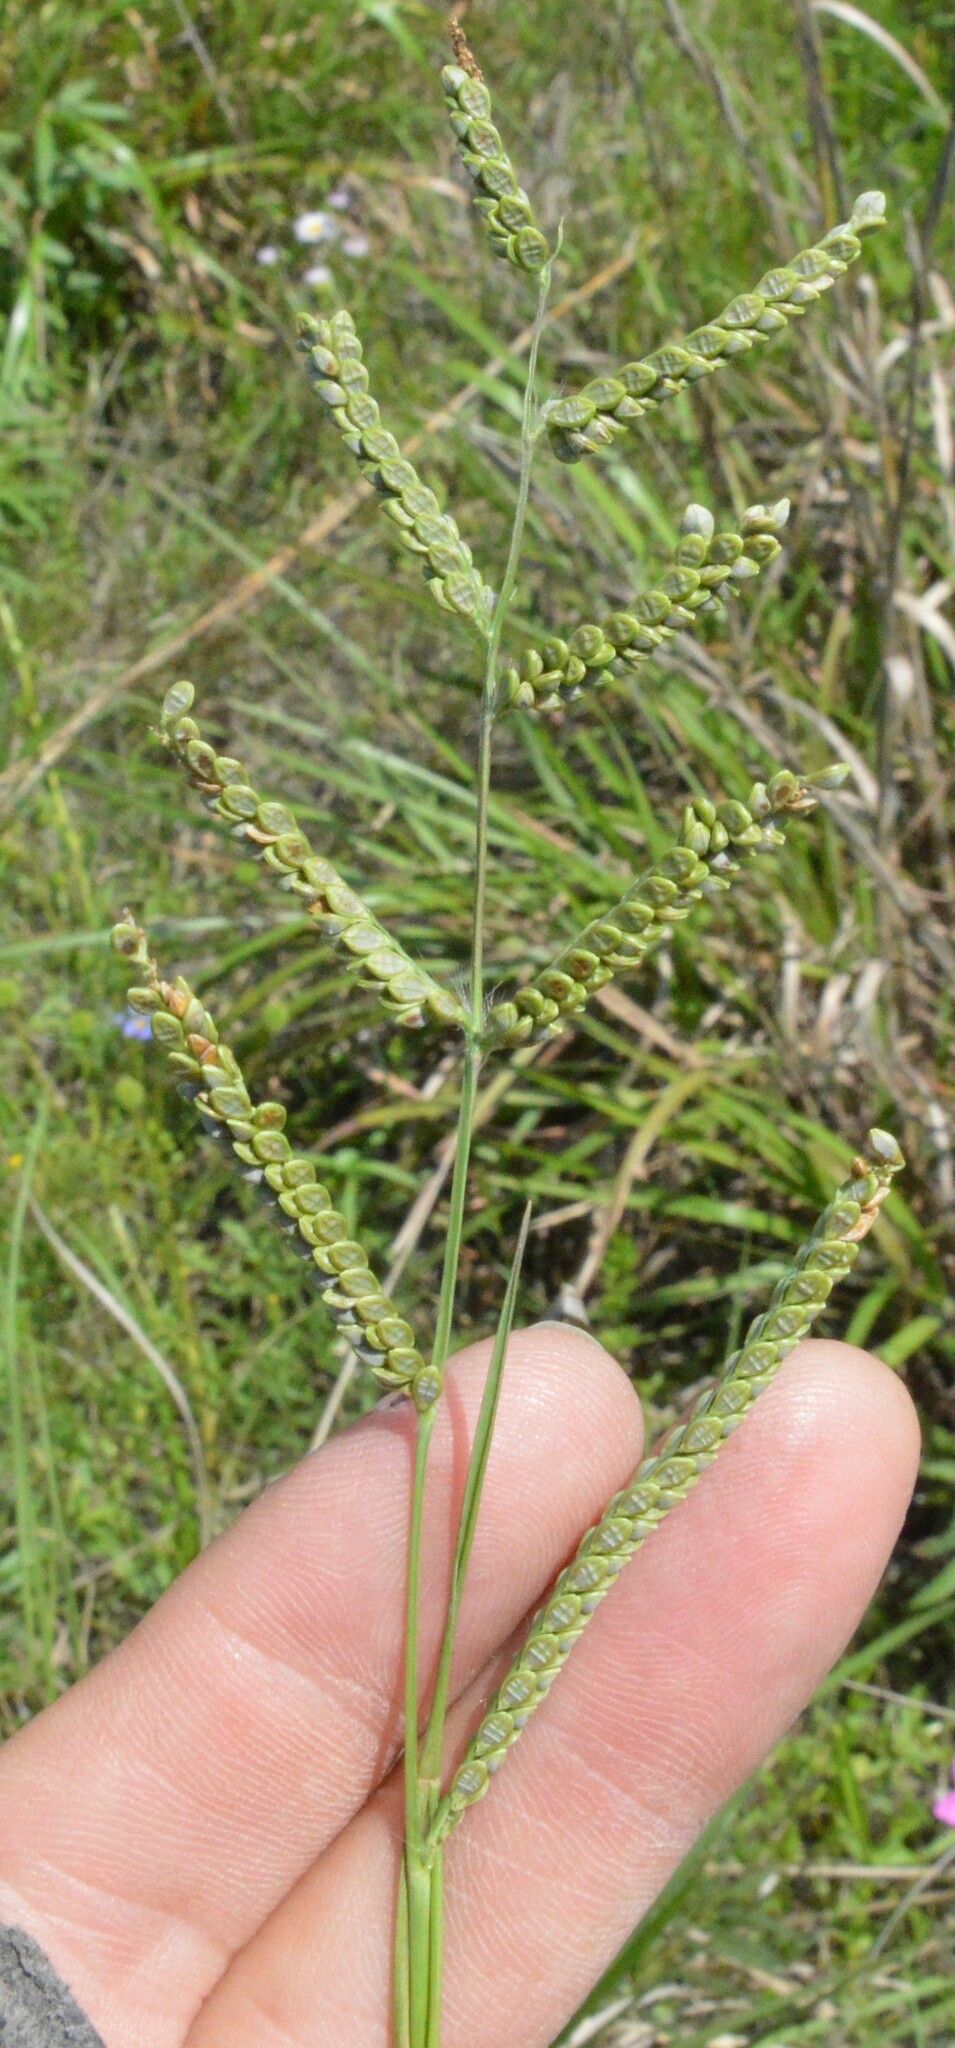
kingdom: Plantae
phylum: Tracheophyta
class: Liliopsida
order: Poales
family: Poaceae
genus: Paspalum
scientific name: Paspalum plicatulum
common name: Top paspalum
